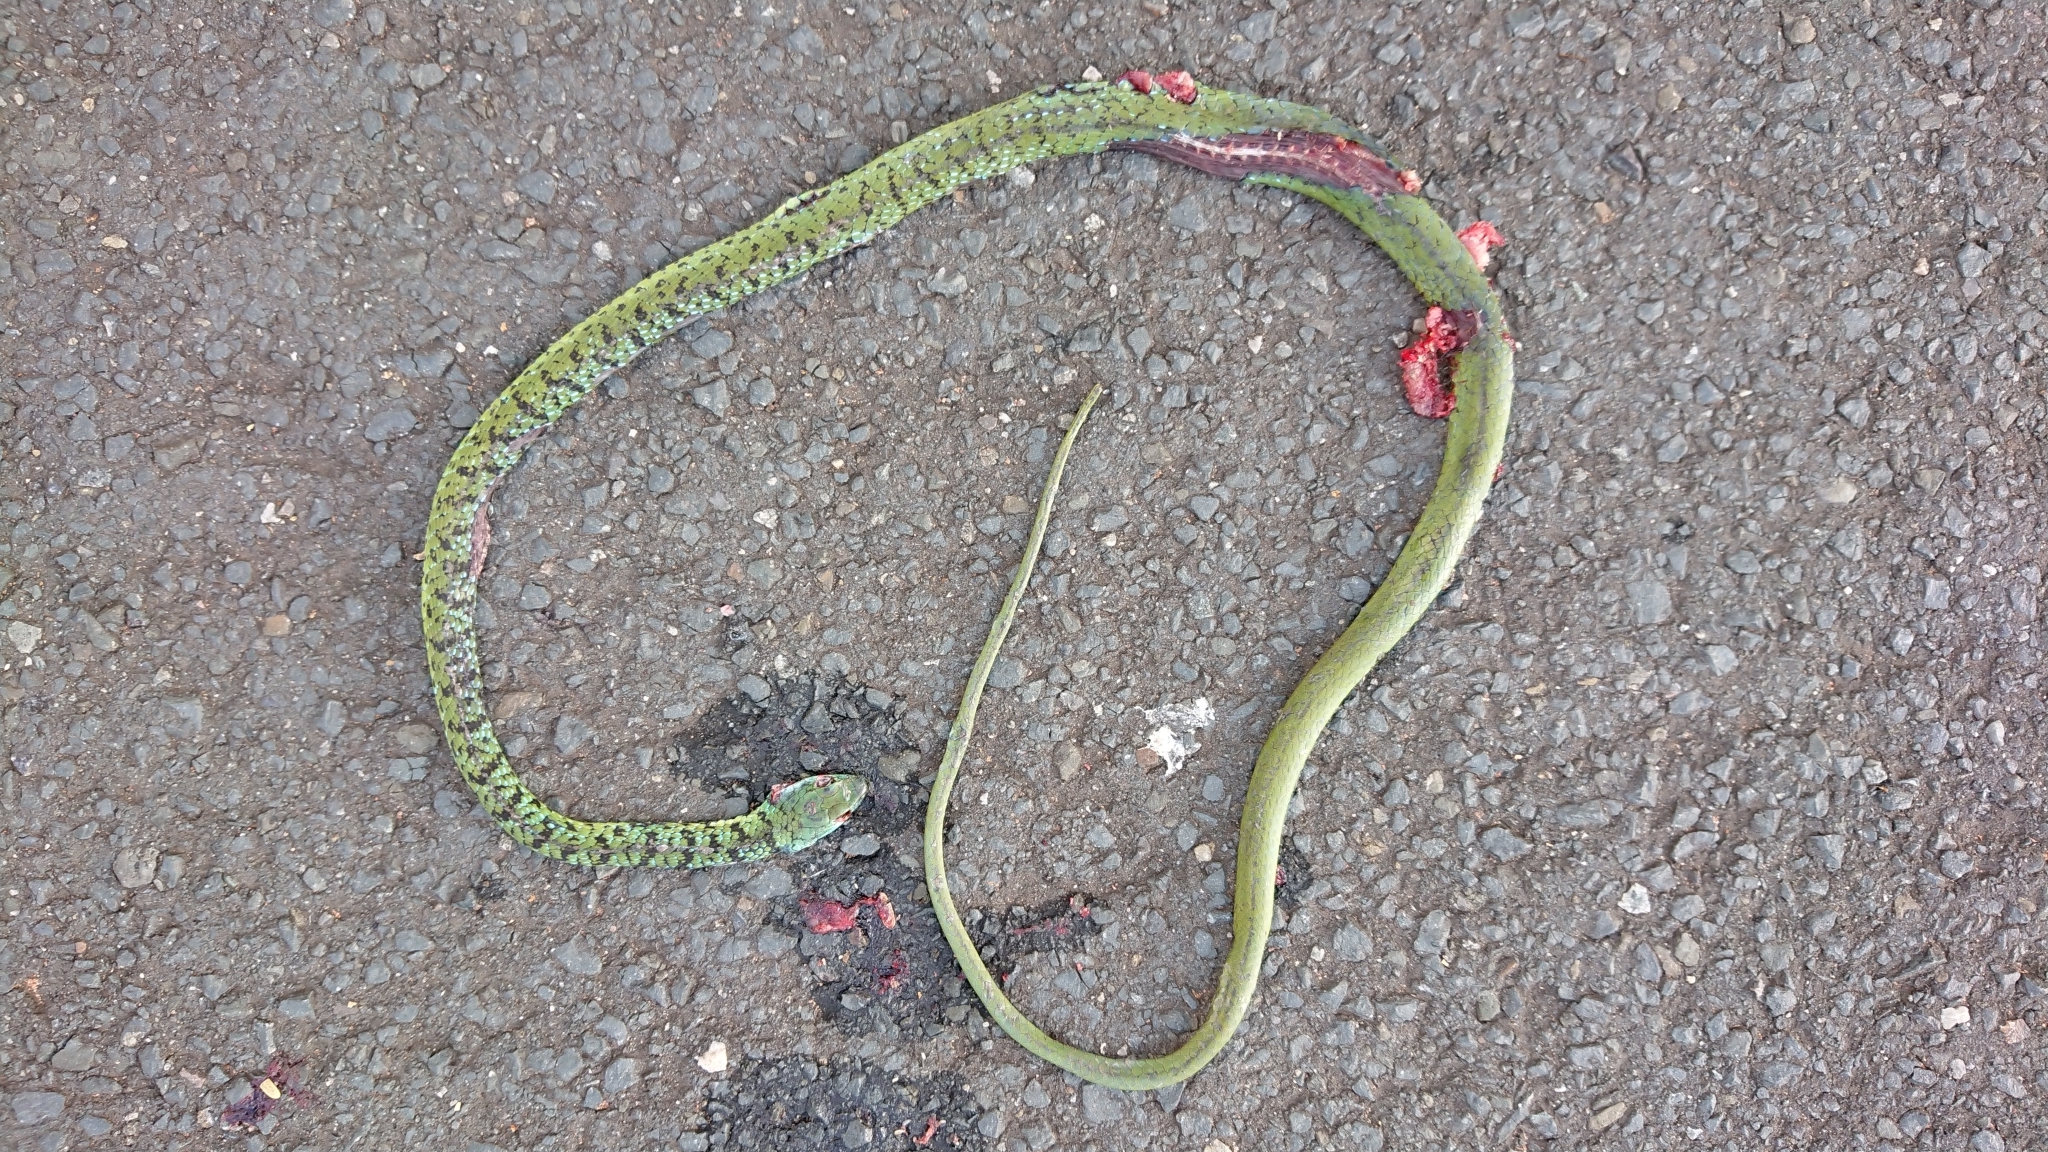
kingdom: Animalia
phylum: Chordata
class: Squamata
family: Colubridae
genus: Philothamnus
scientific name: Philothamnus semivariegatus
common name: Spotted bush snake
